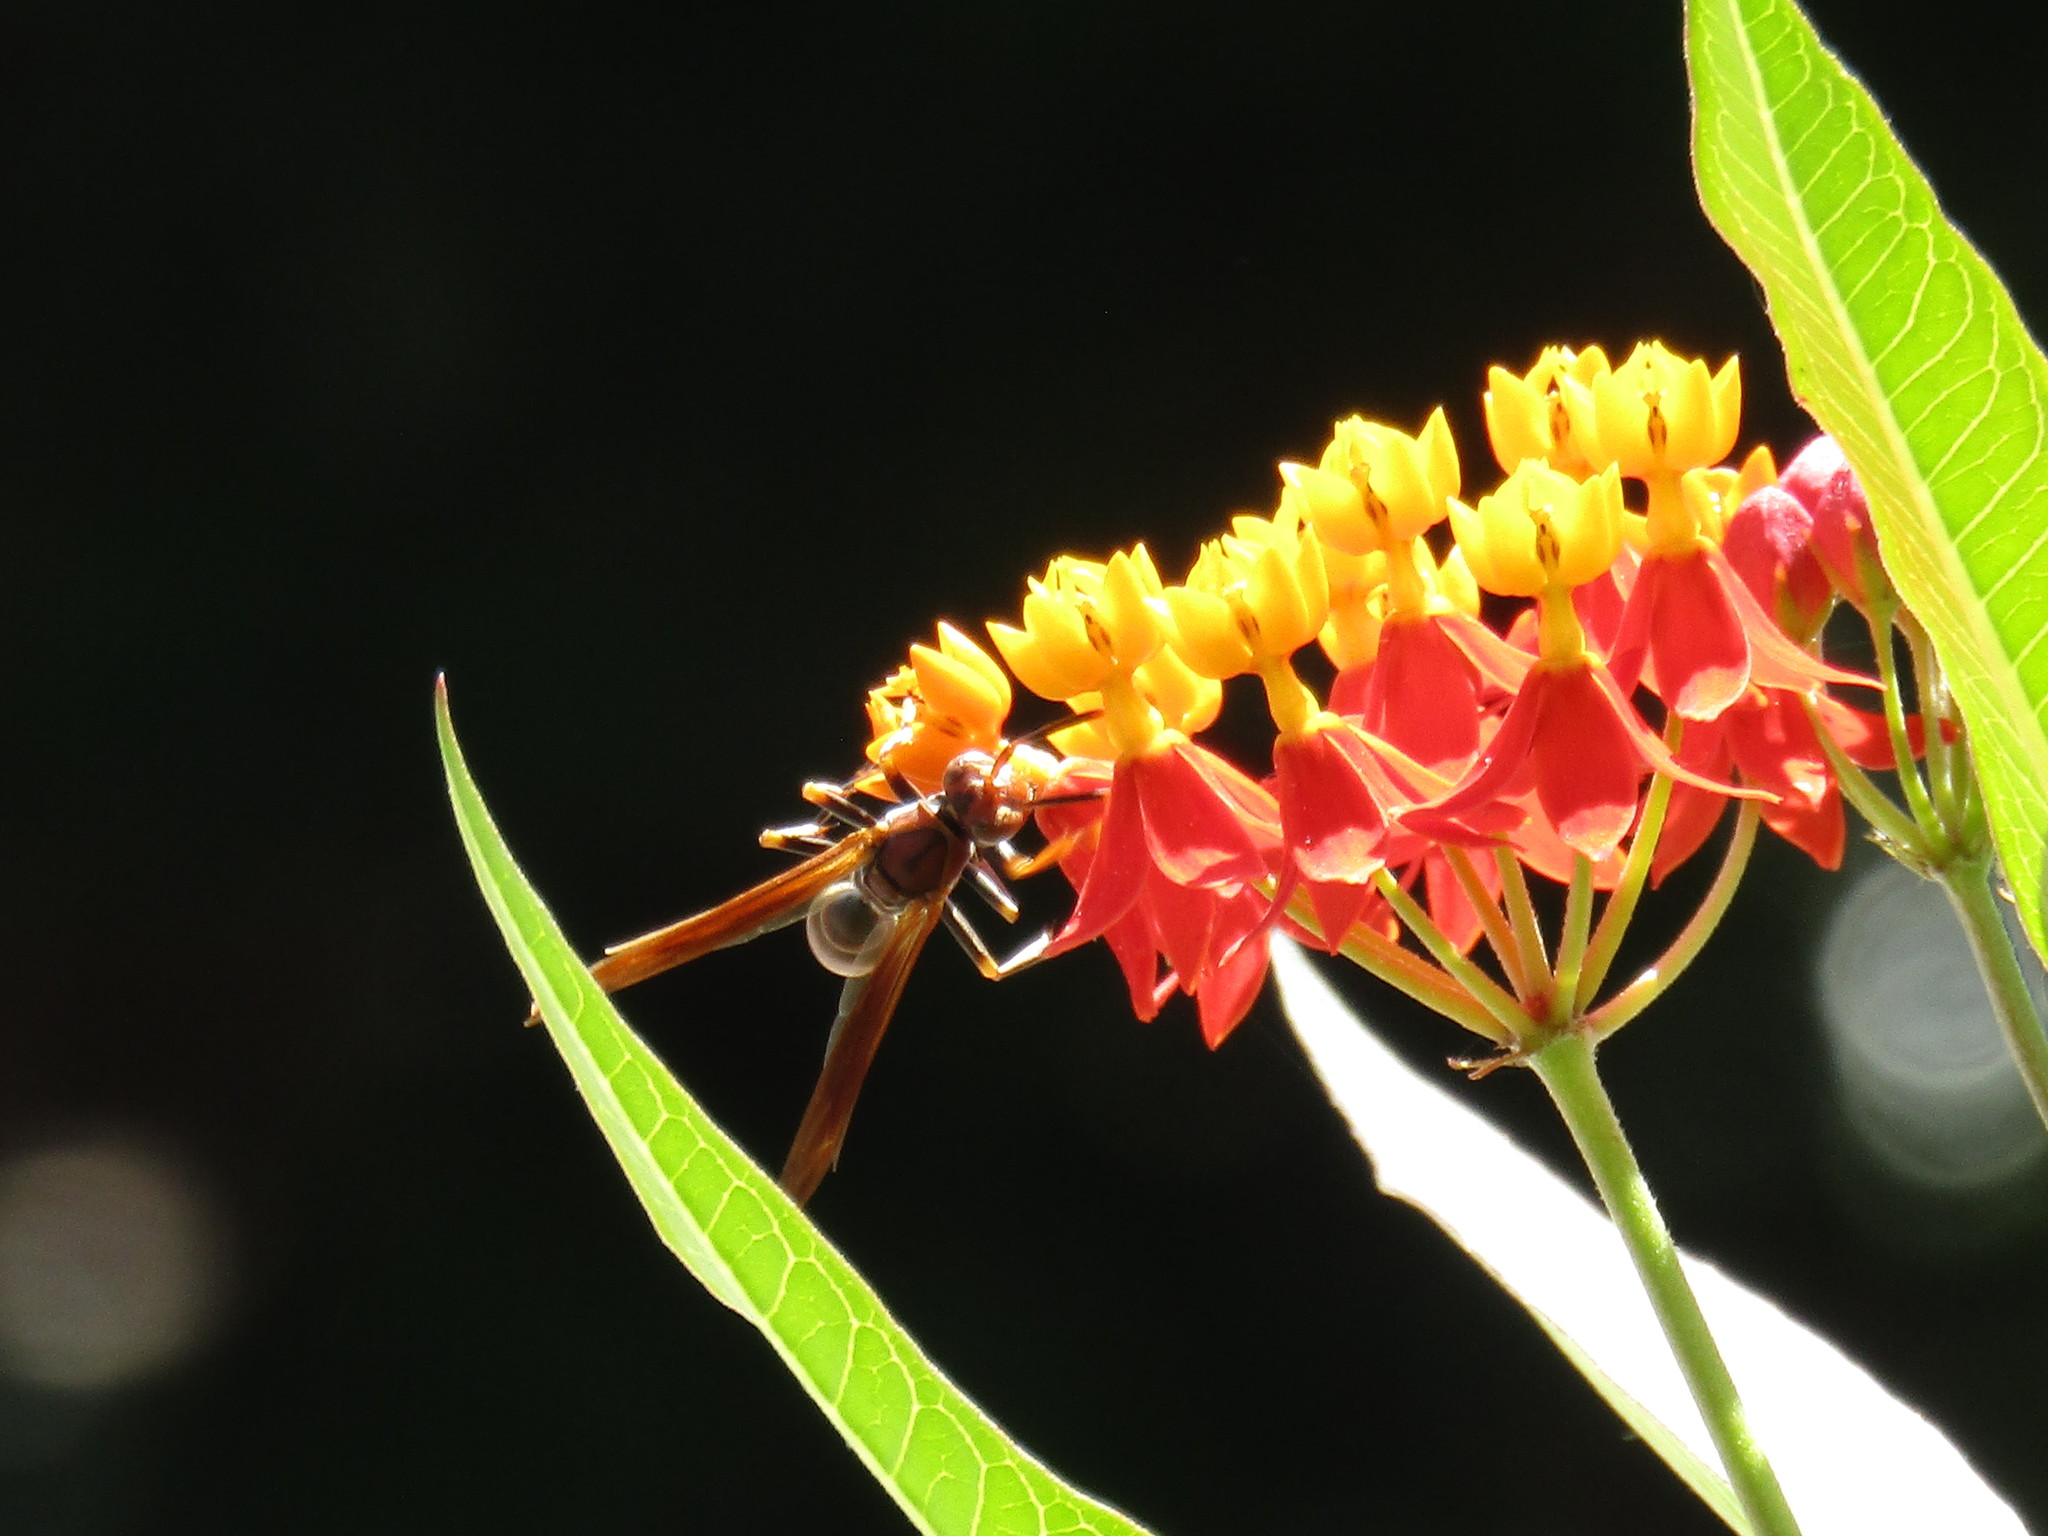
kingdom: Animalia
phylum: Arthropoda
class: Insecta
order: Hymenoptera
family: Pompilidae
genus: Aphanilopterus
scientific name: Aphanilopterus
